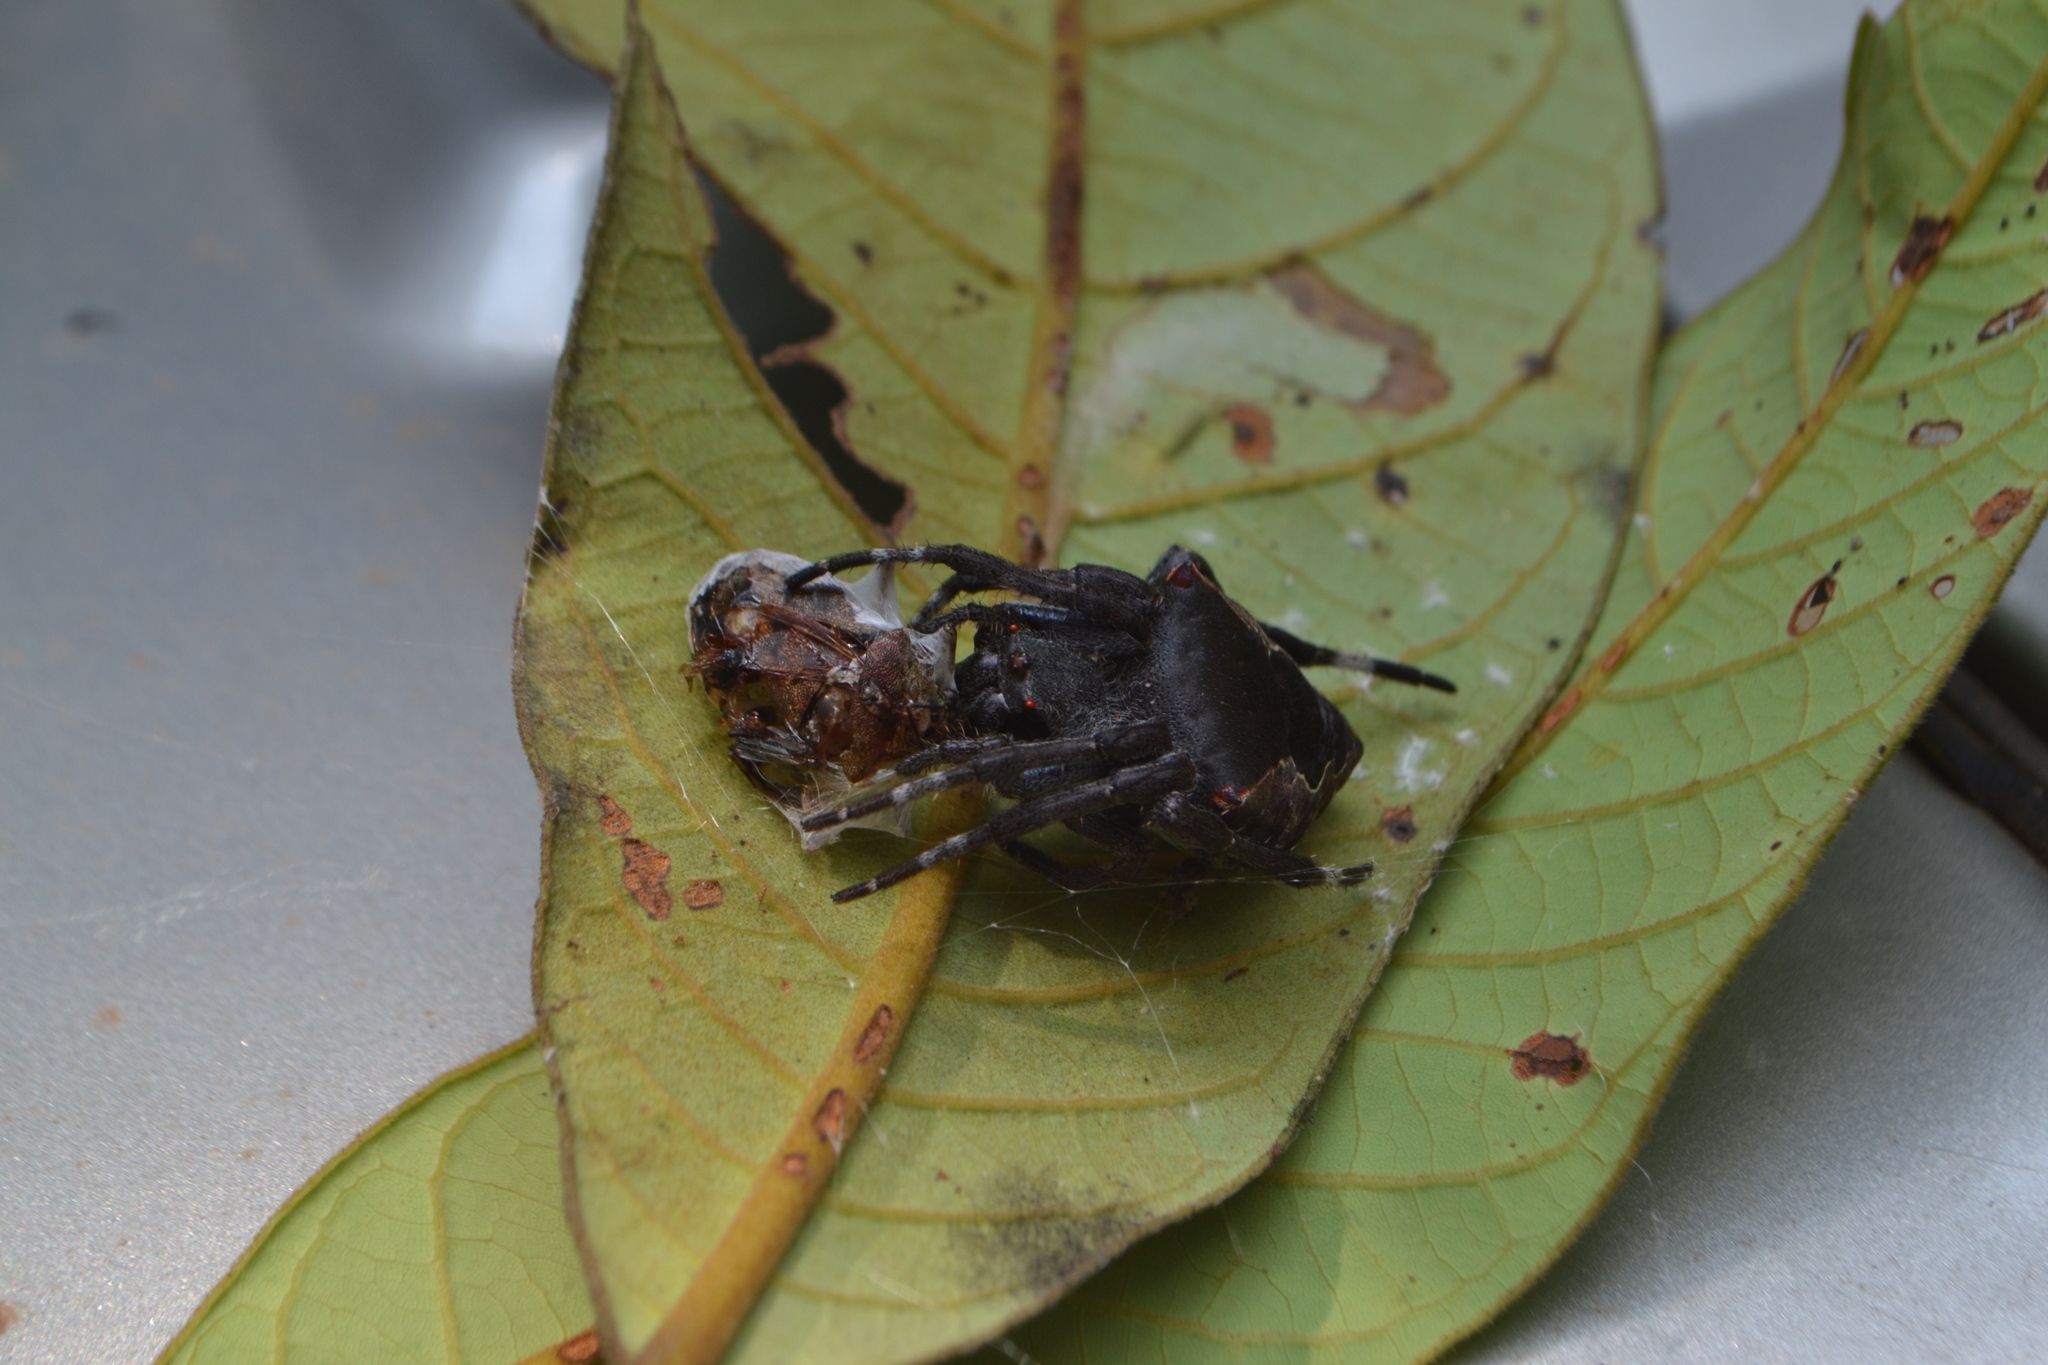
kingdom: Animalia
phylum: Arthropoda
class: Arachnida
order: Araneae
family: Araneidae
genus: Parawixia
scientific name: Parawixia dehaani
